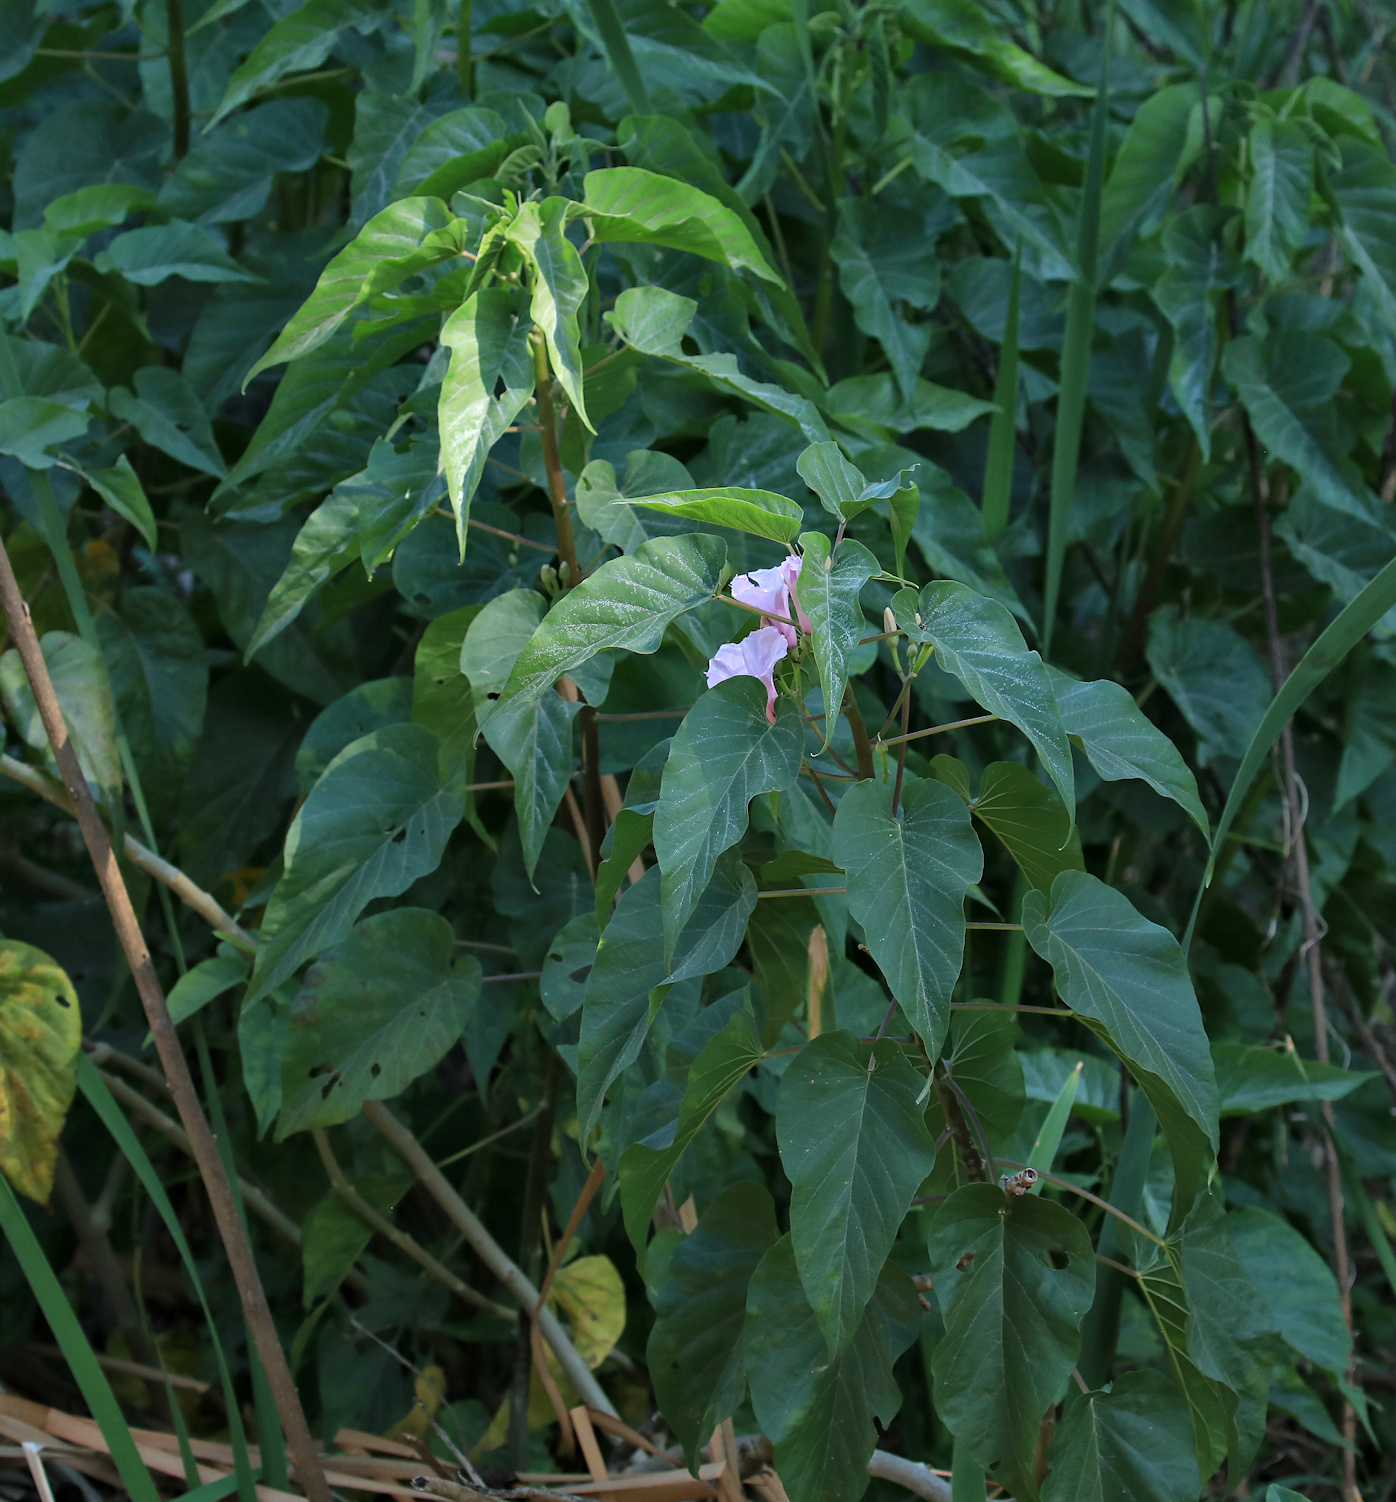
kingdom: Plantae
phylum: Tracheophyta
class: Magnoliopsida
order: Solanales
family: Convolvulaceae
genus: Ipomoea
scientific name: Ipomoea carnea
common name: Morning-glory
